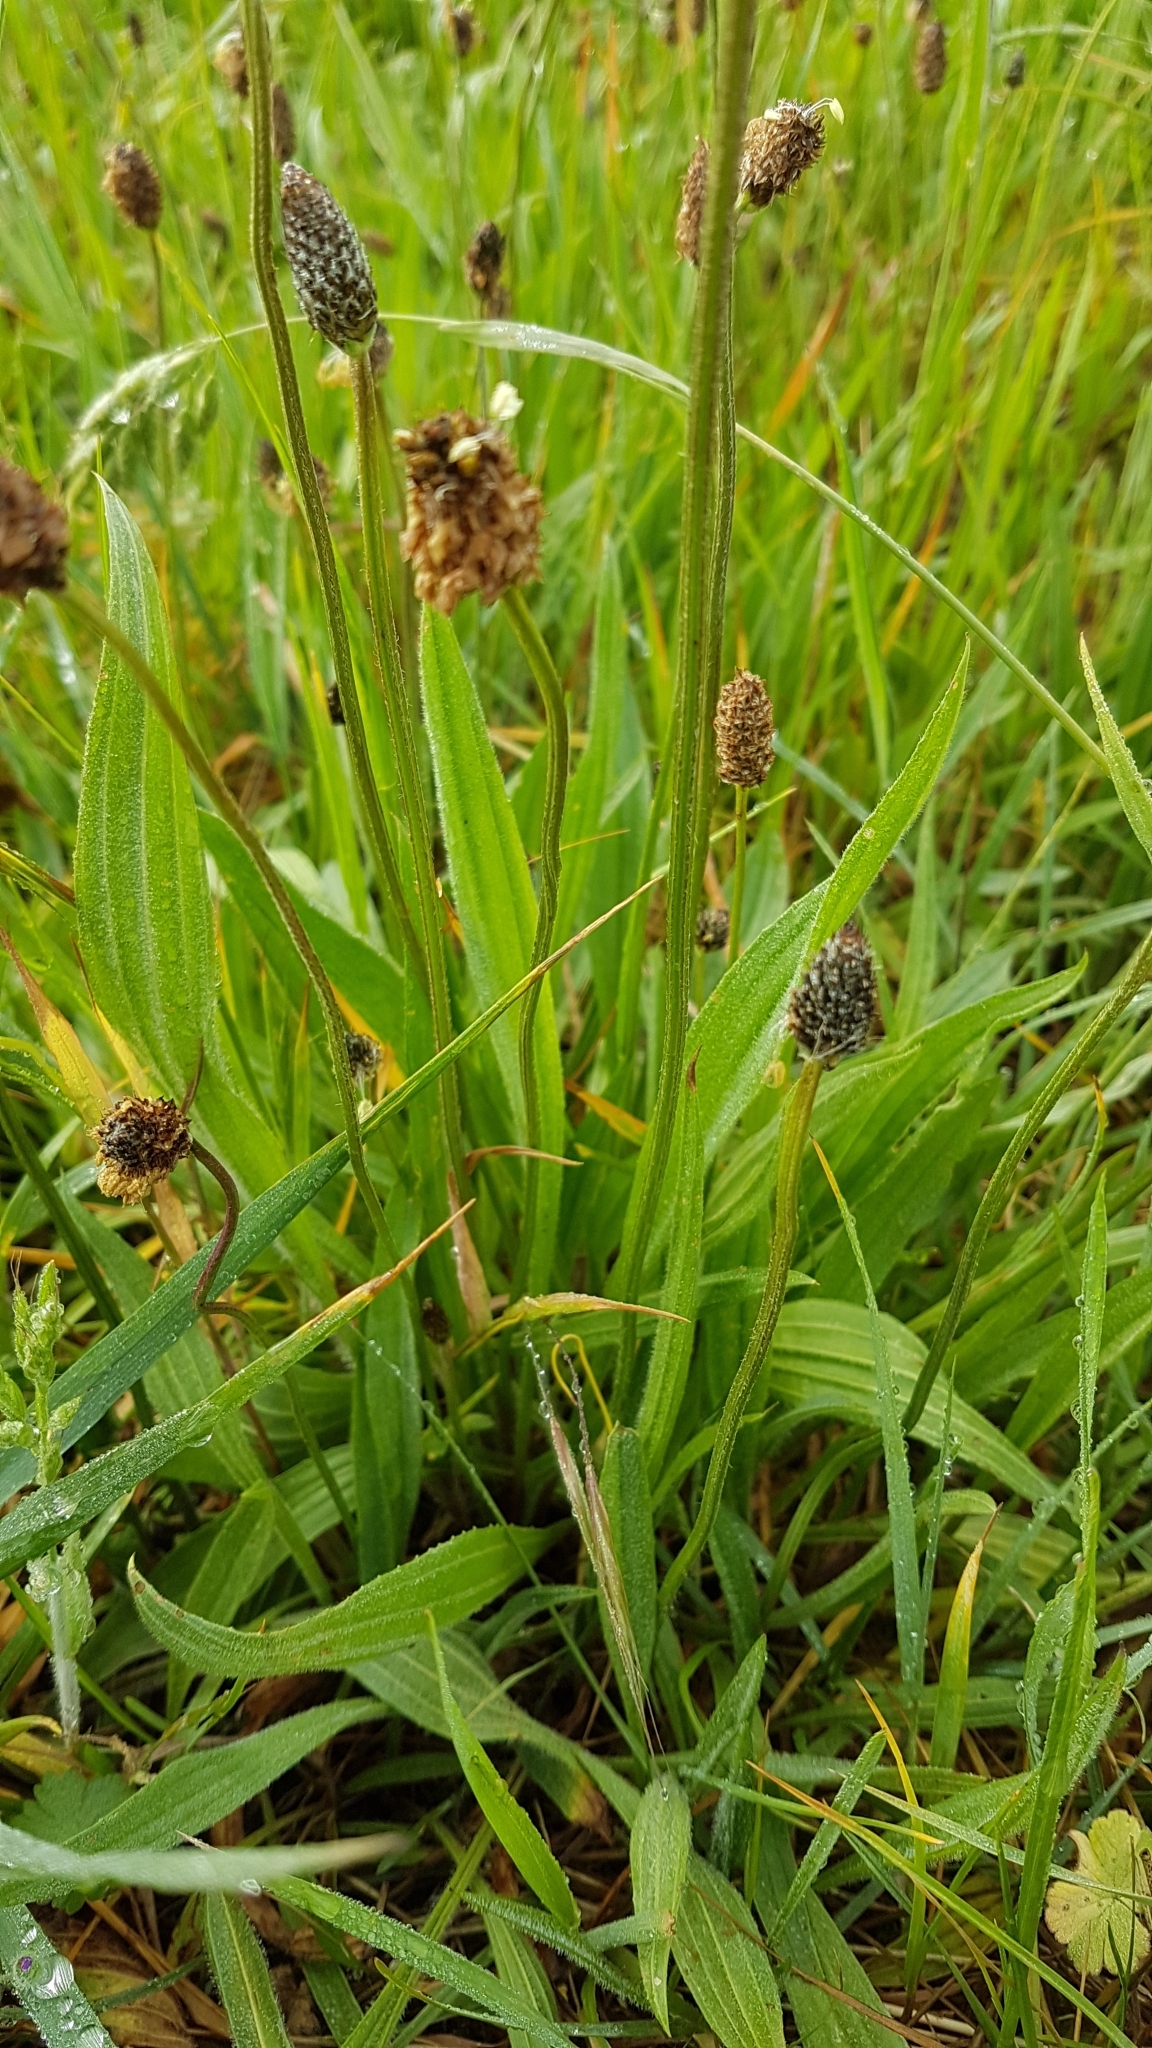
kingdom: Plantae
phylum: Tracheophyta
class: Magnoliopsida
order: Lamiales
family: Plantaginaceae
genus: Plantago
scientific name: Plantago lanceolata
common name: Ribwort plantain
